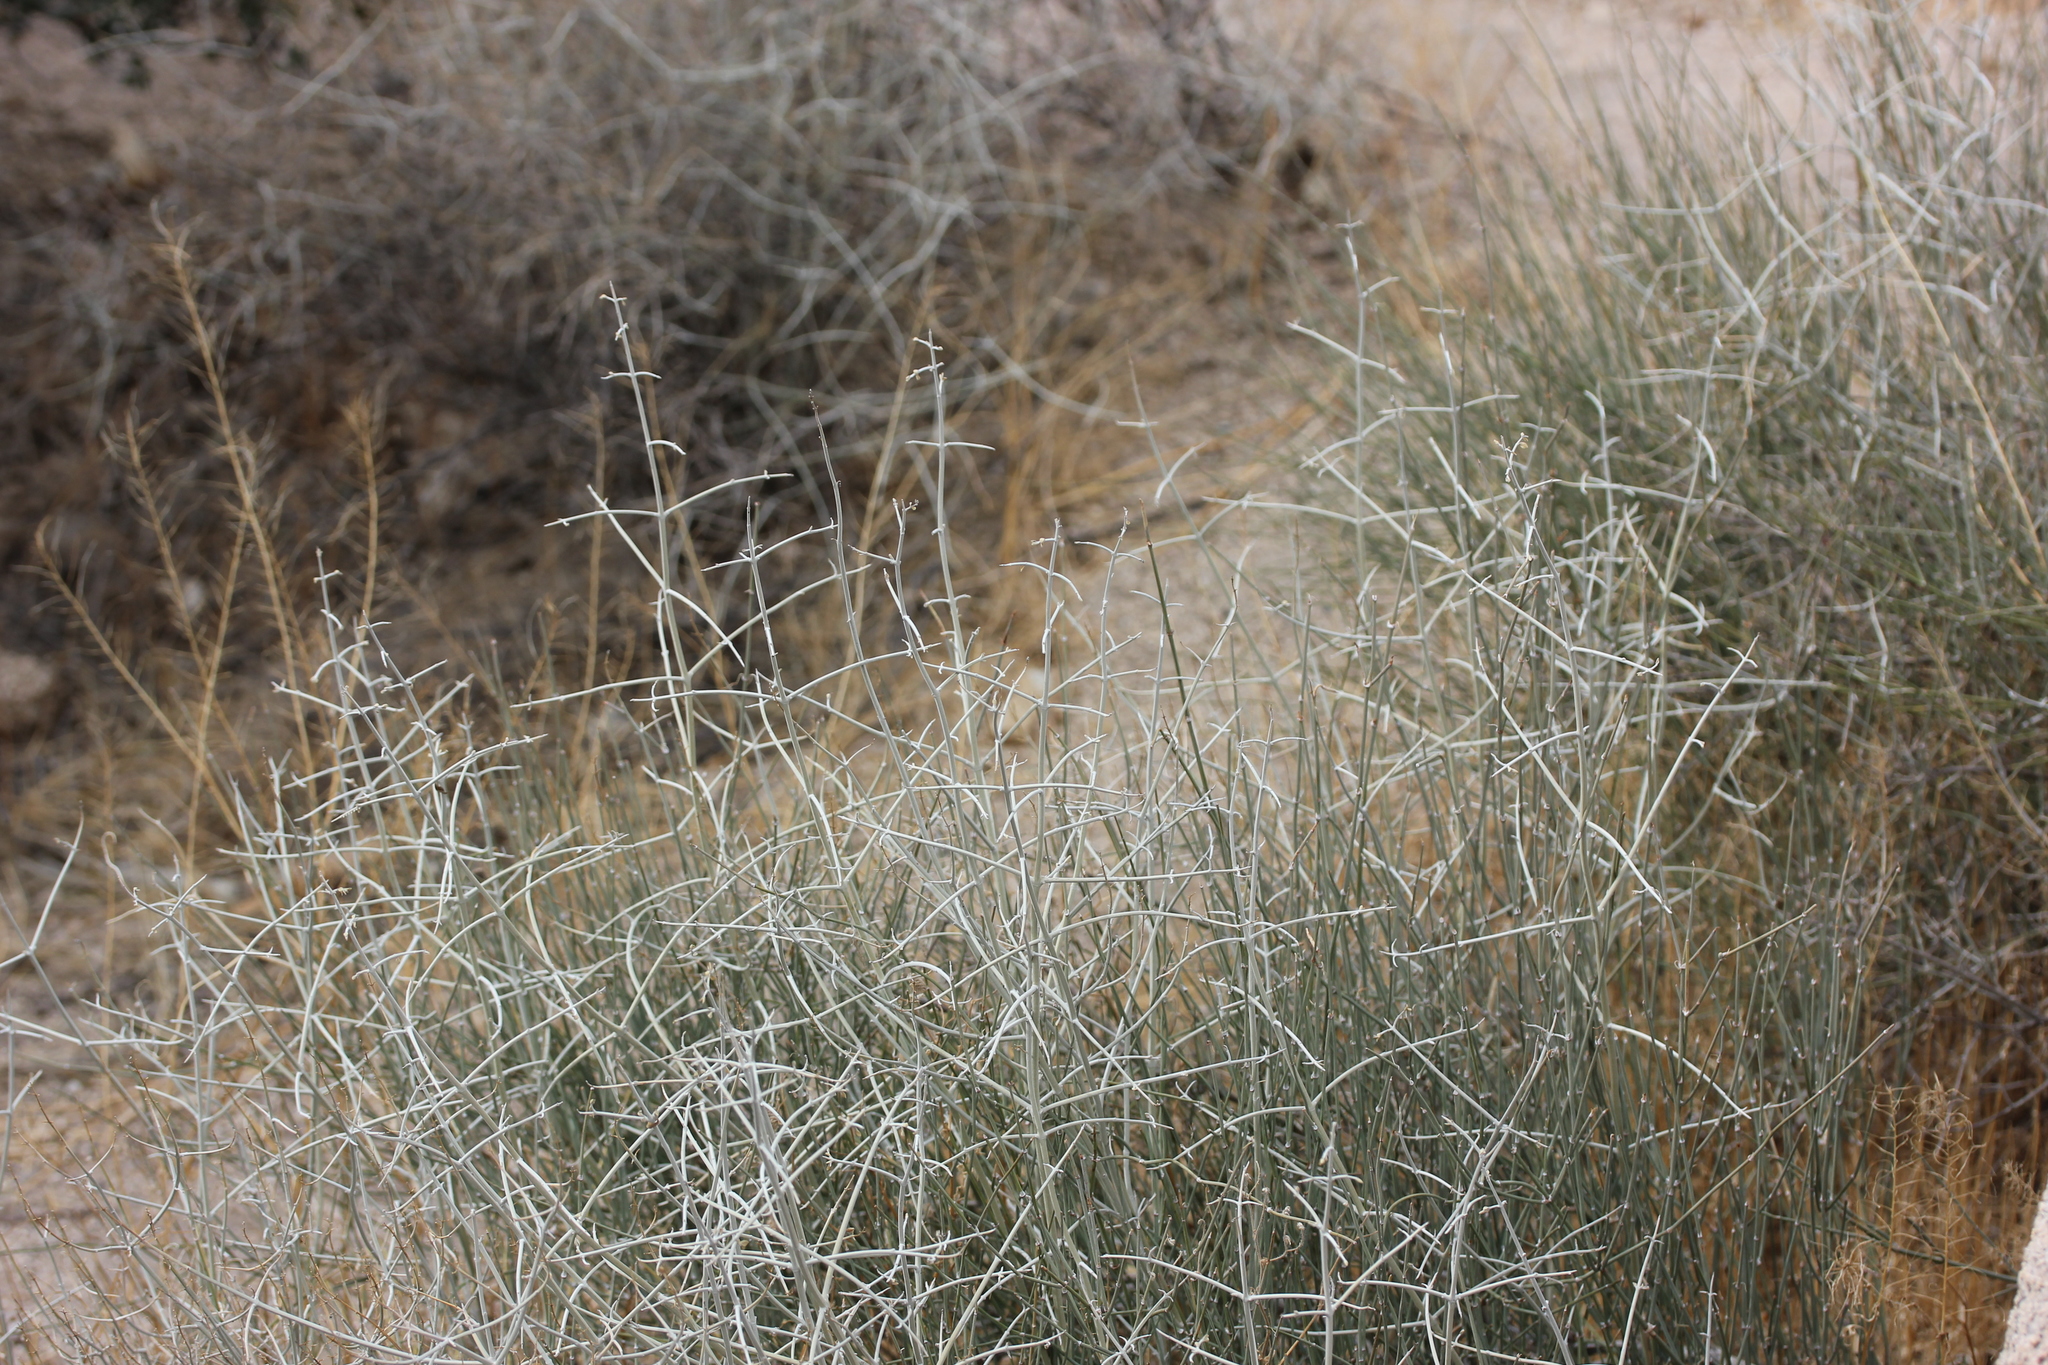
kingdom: Plantae
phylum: Tracheophyta
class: Gnetopsida
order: Ephedrales
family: Ephedraceae
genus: Ephedra
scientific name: Ephedra nevadensis
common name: Gray ephedra
